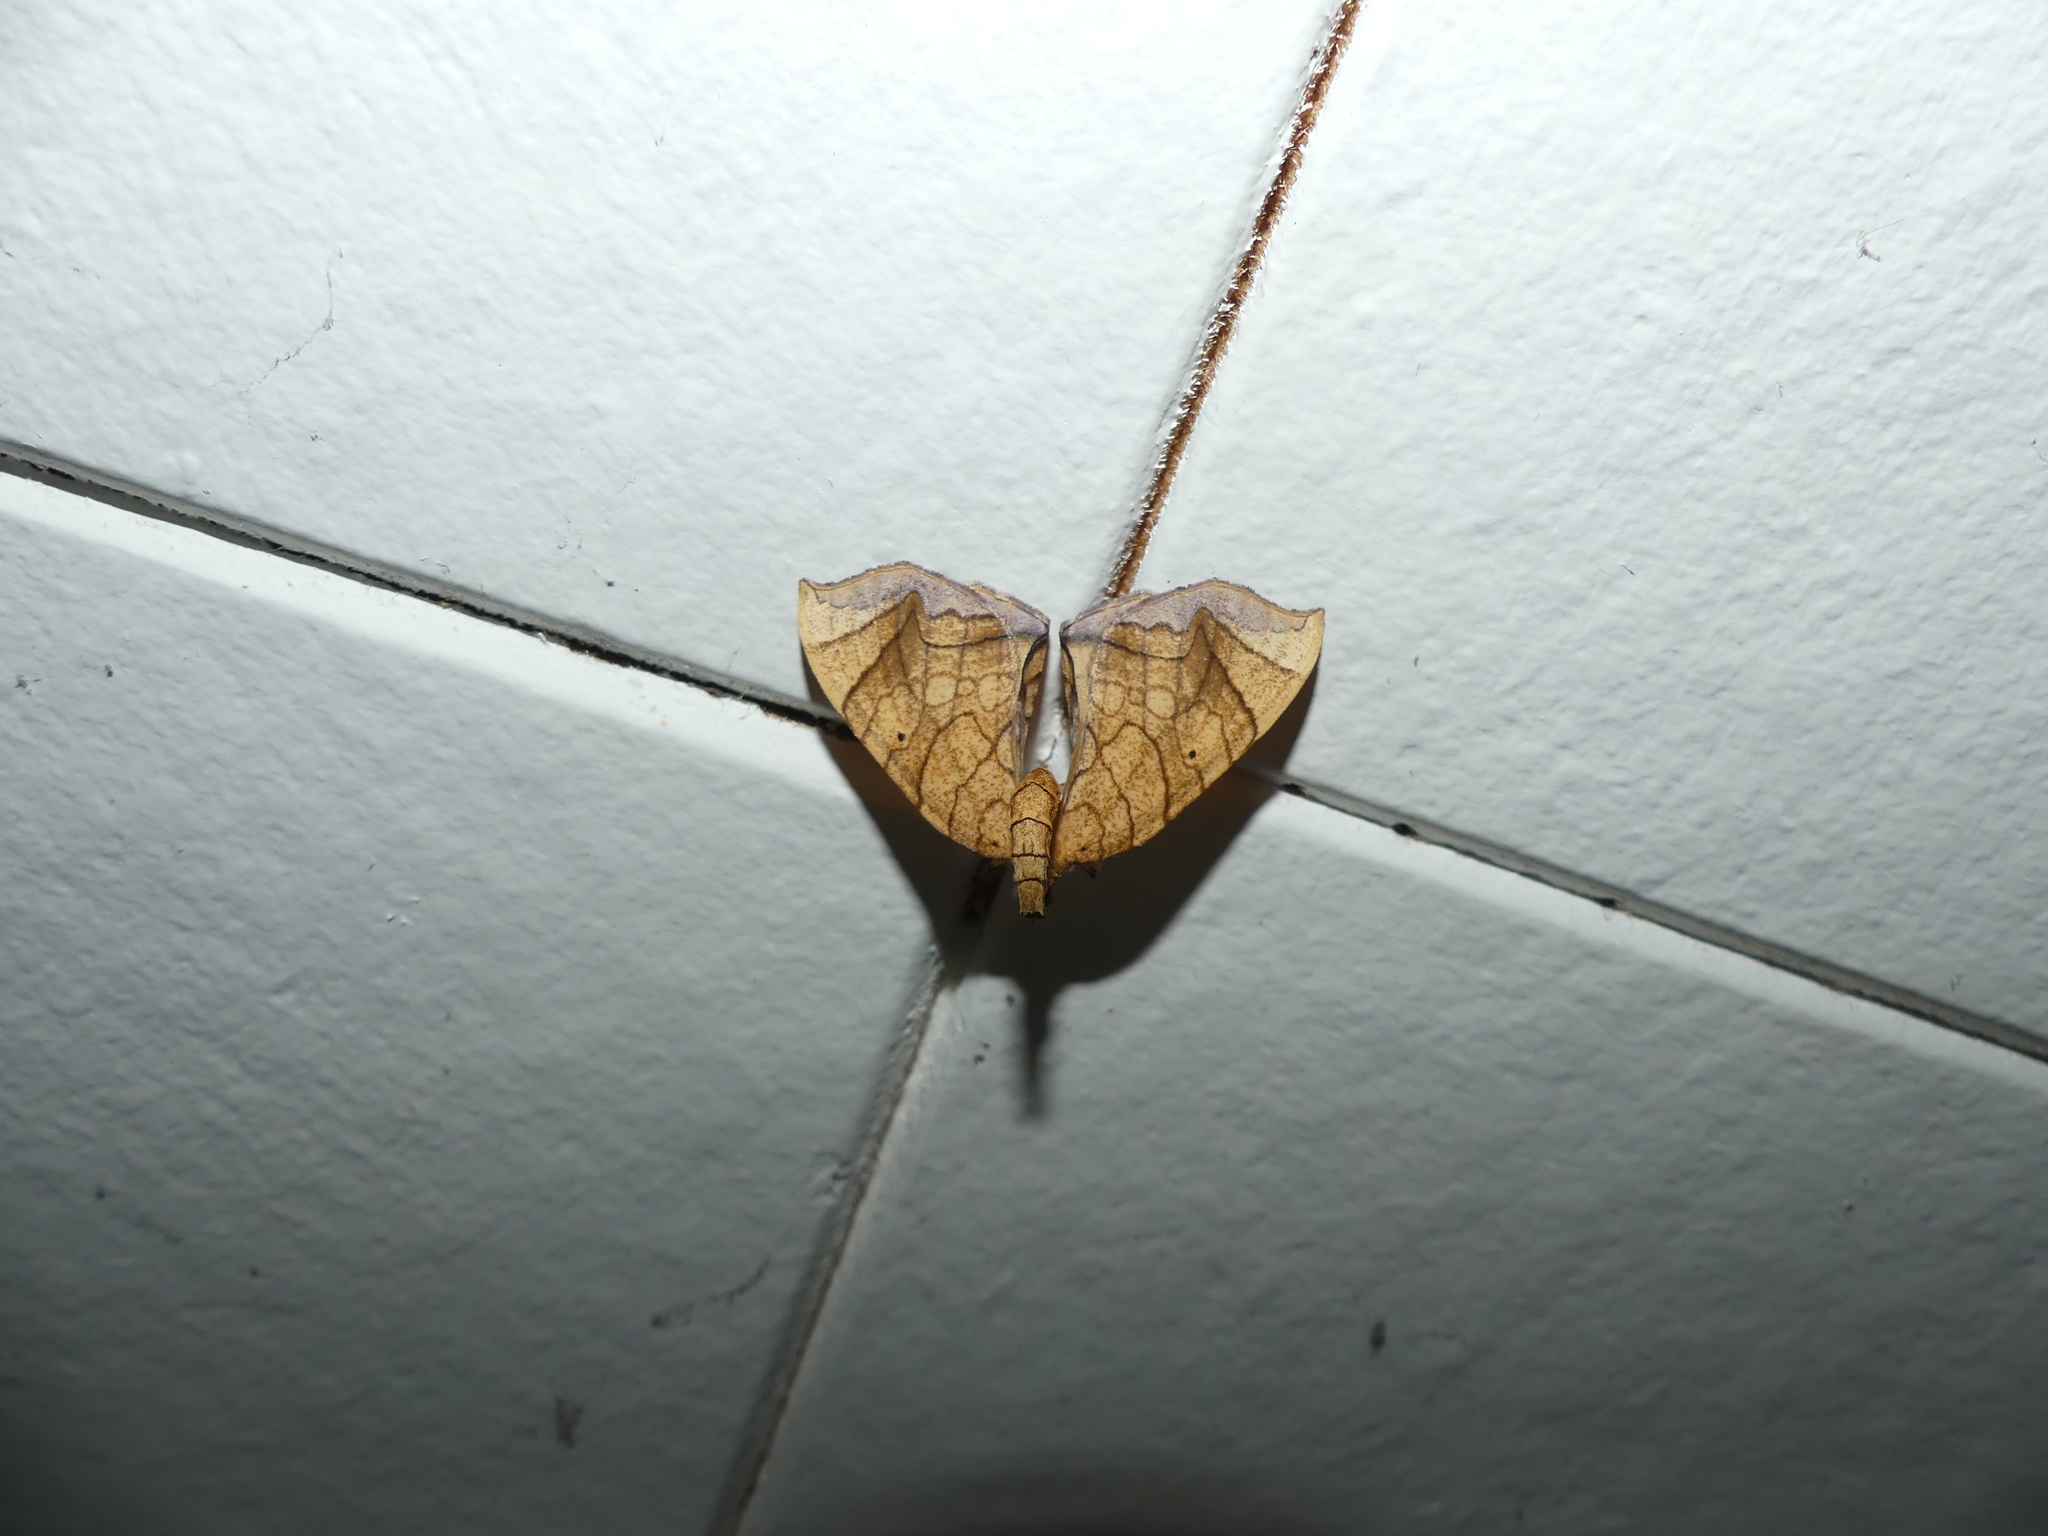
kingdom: Animalia
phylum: Arthropoda
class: Insecta
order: Lepidoptera
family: Geometridae
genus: Eulithis
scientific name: Eulithis gracilineata
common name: Greater grapevine looper moth
